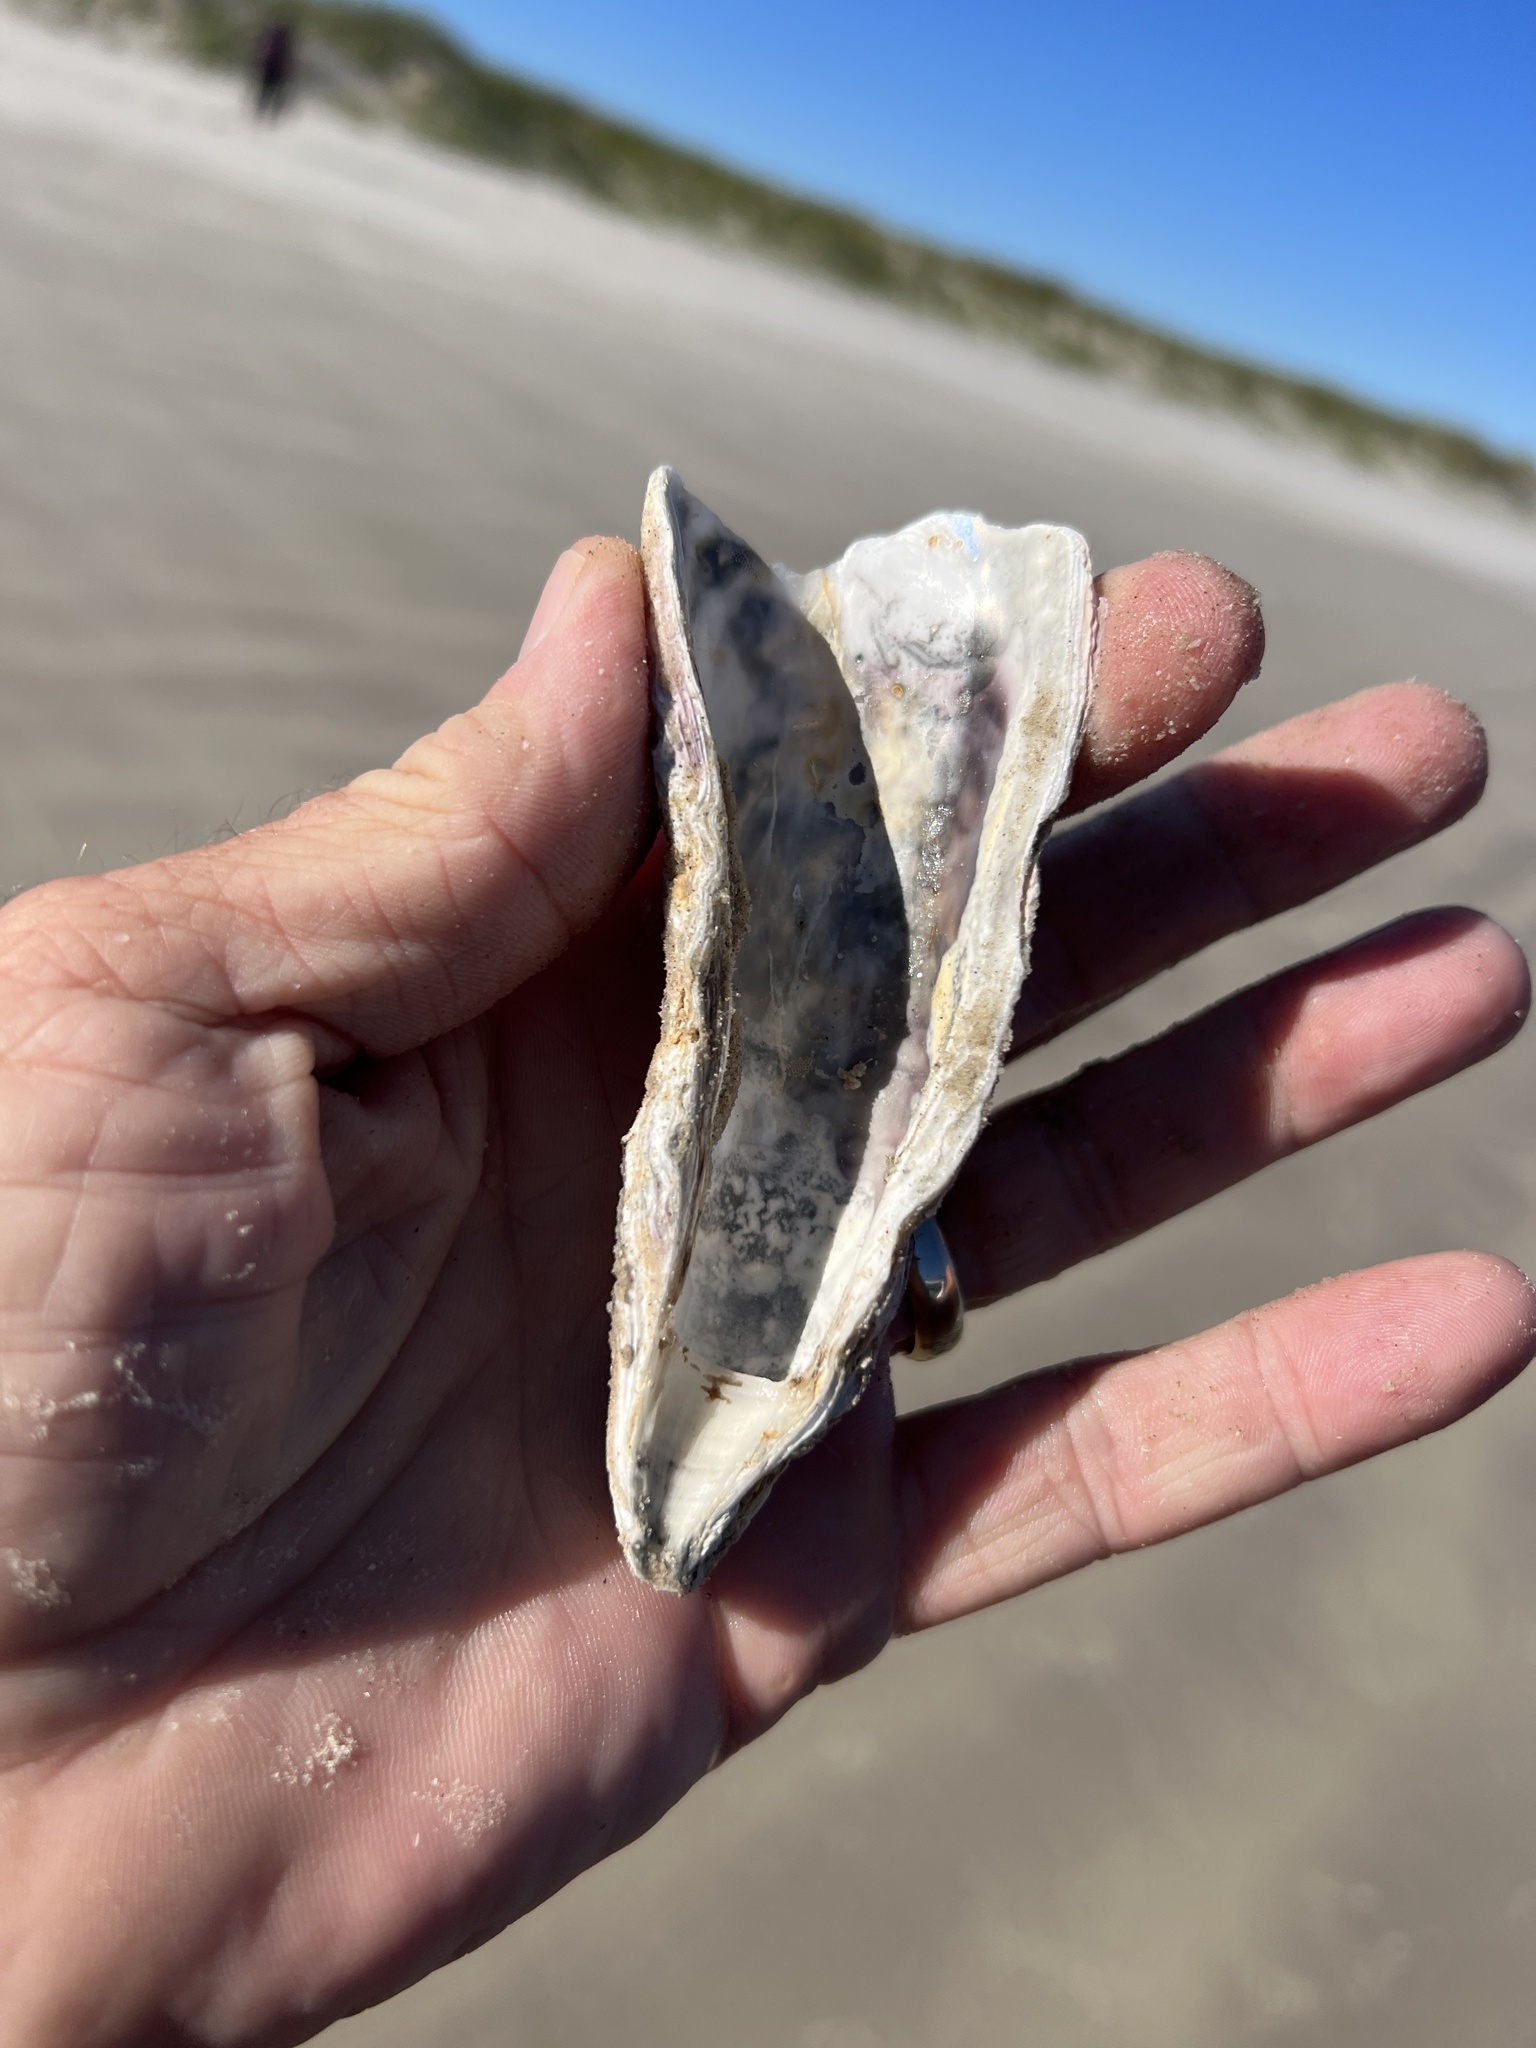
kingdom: Animalia
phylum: Mollusca
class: Bivalvia
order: Ostreida
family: Ostreidae
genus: Crassostrea
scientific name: Crassostrea virginica
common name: American oyster
